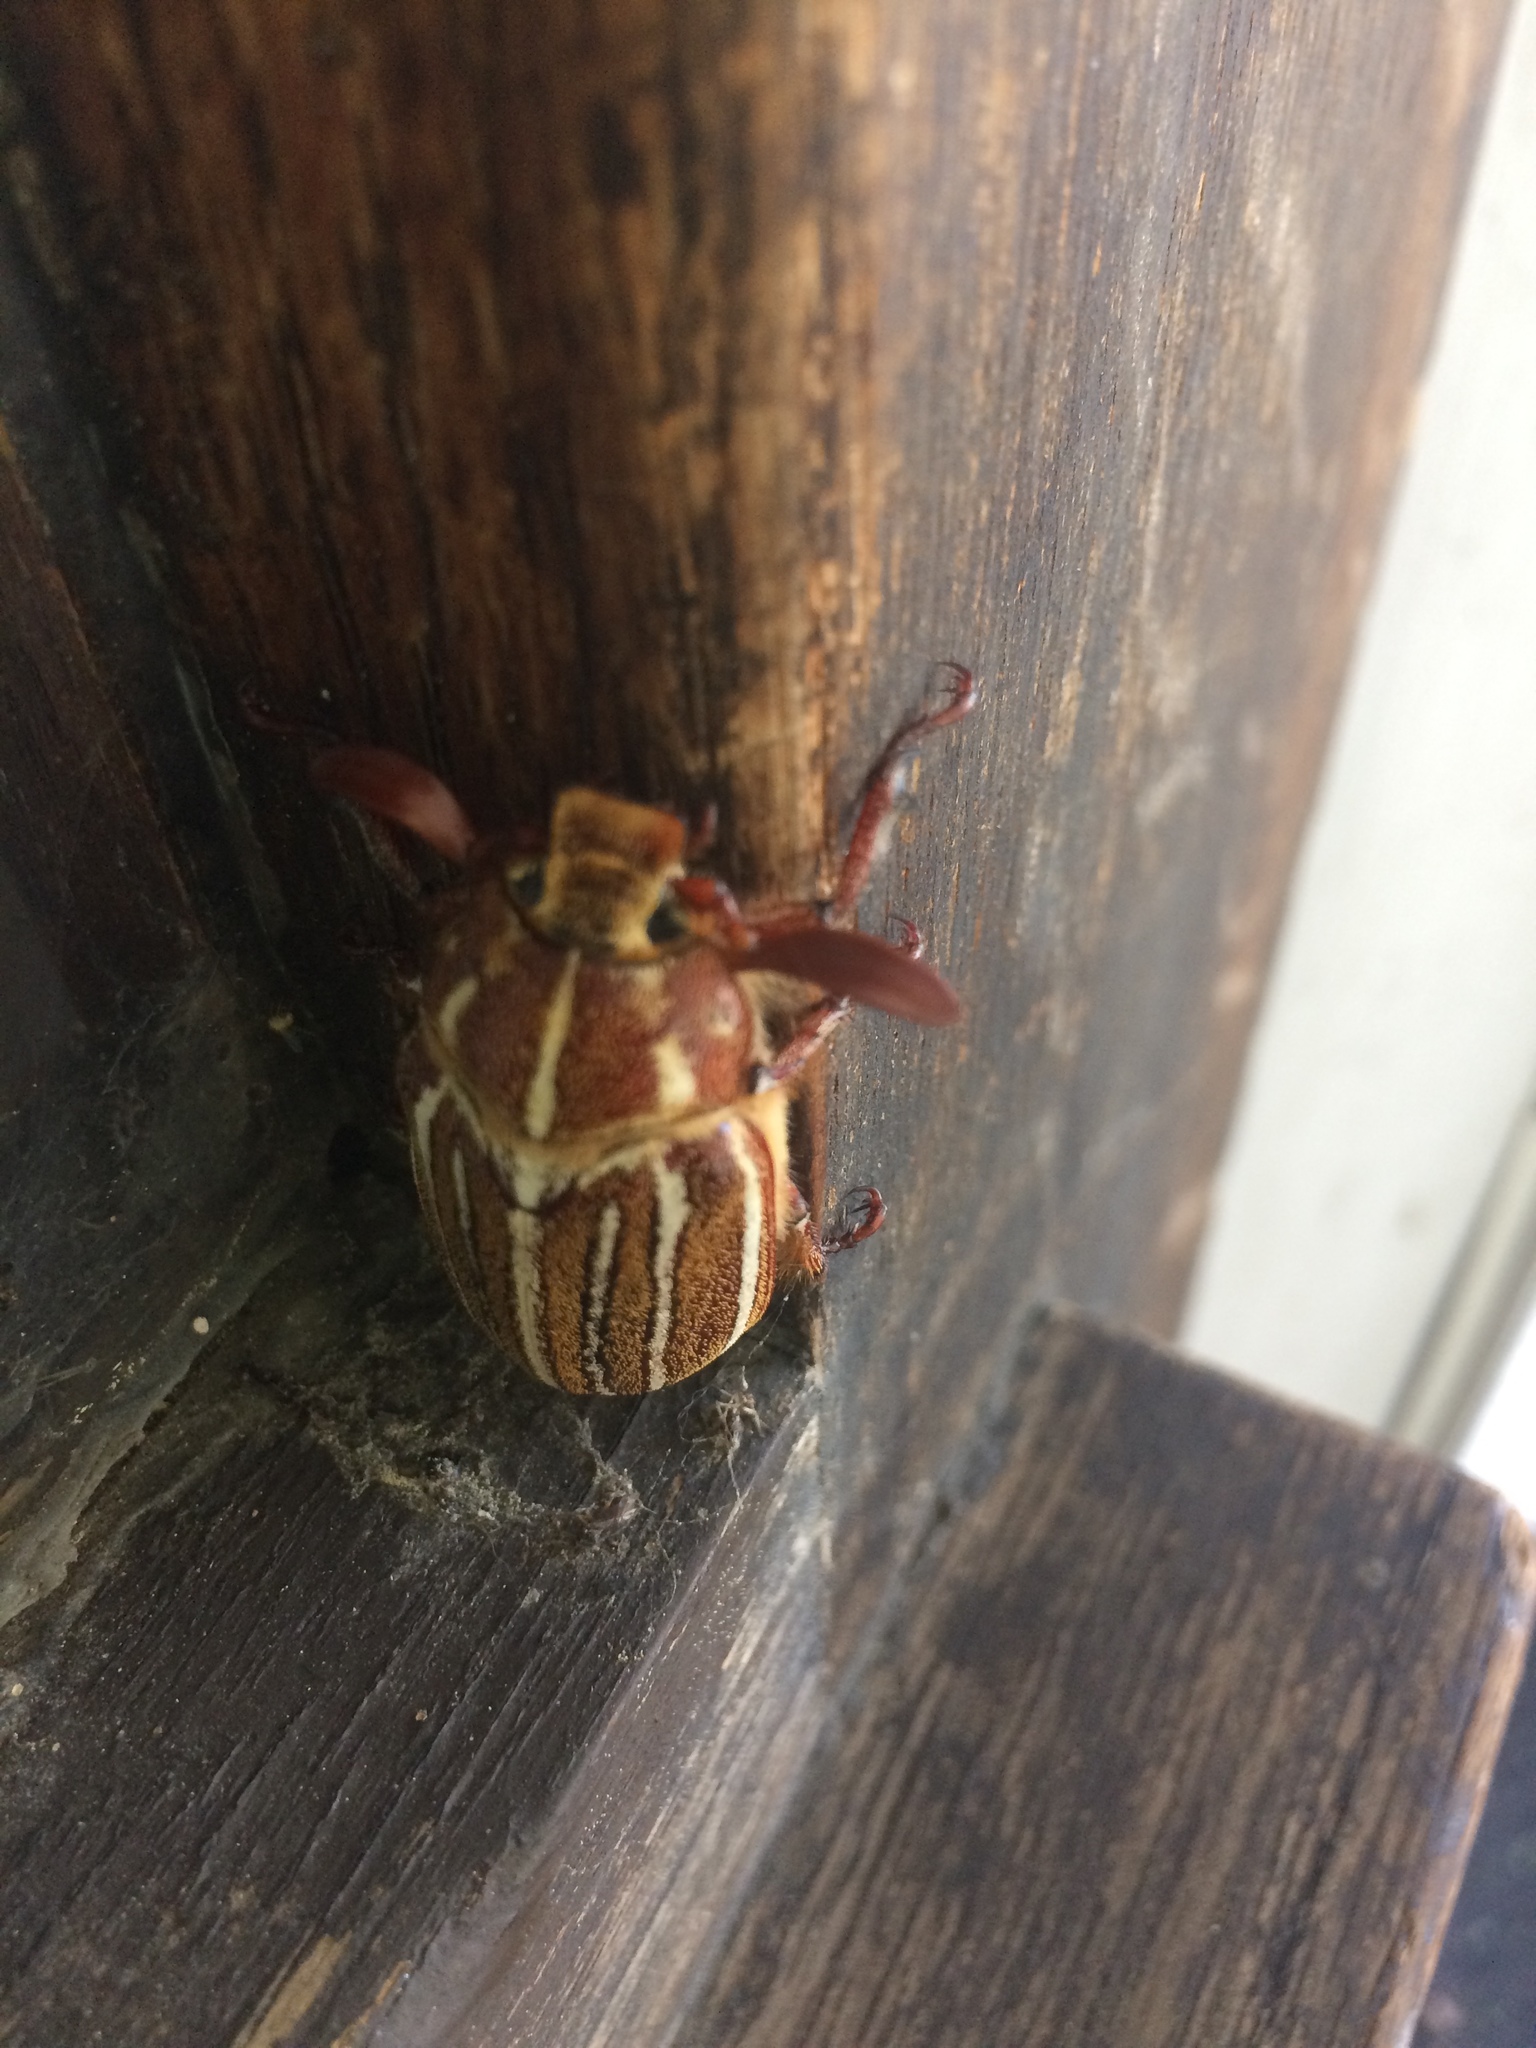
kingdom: Animalia
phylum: Arthropoda
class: Insecta
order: Coleoptera
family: Scarabaeidae
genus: Polyphylla
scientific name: Polyphylla decemlineata
